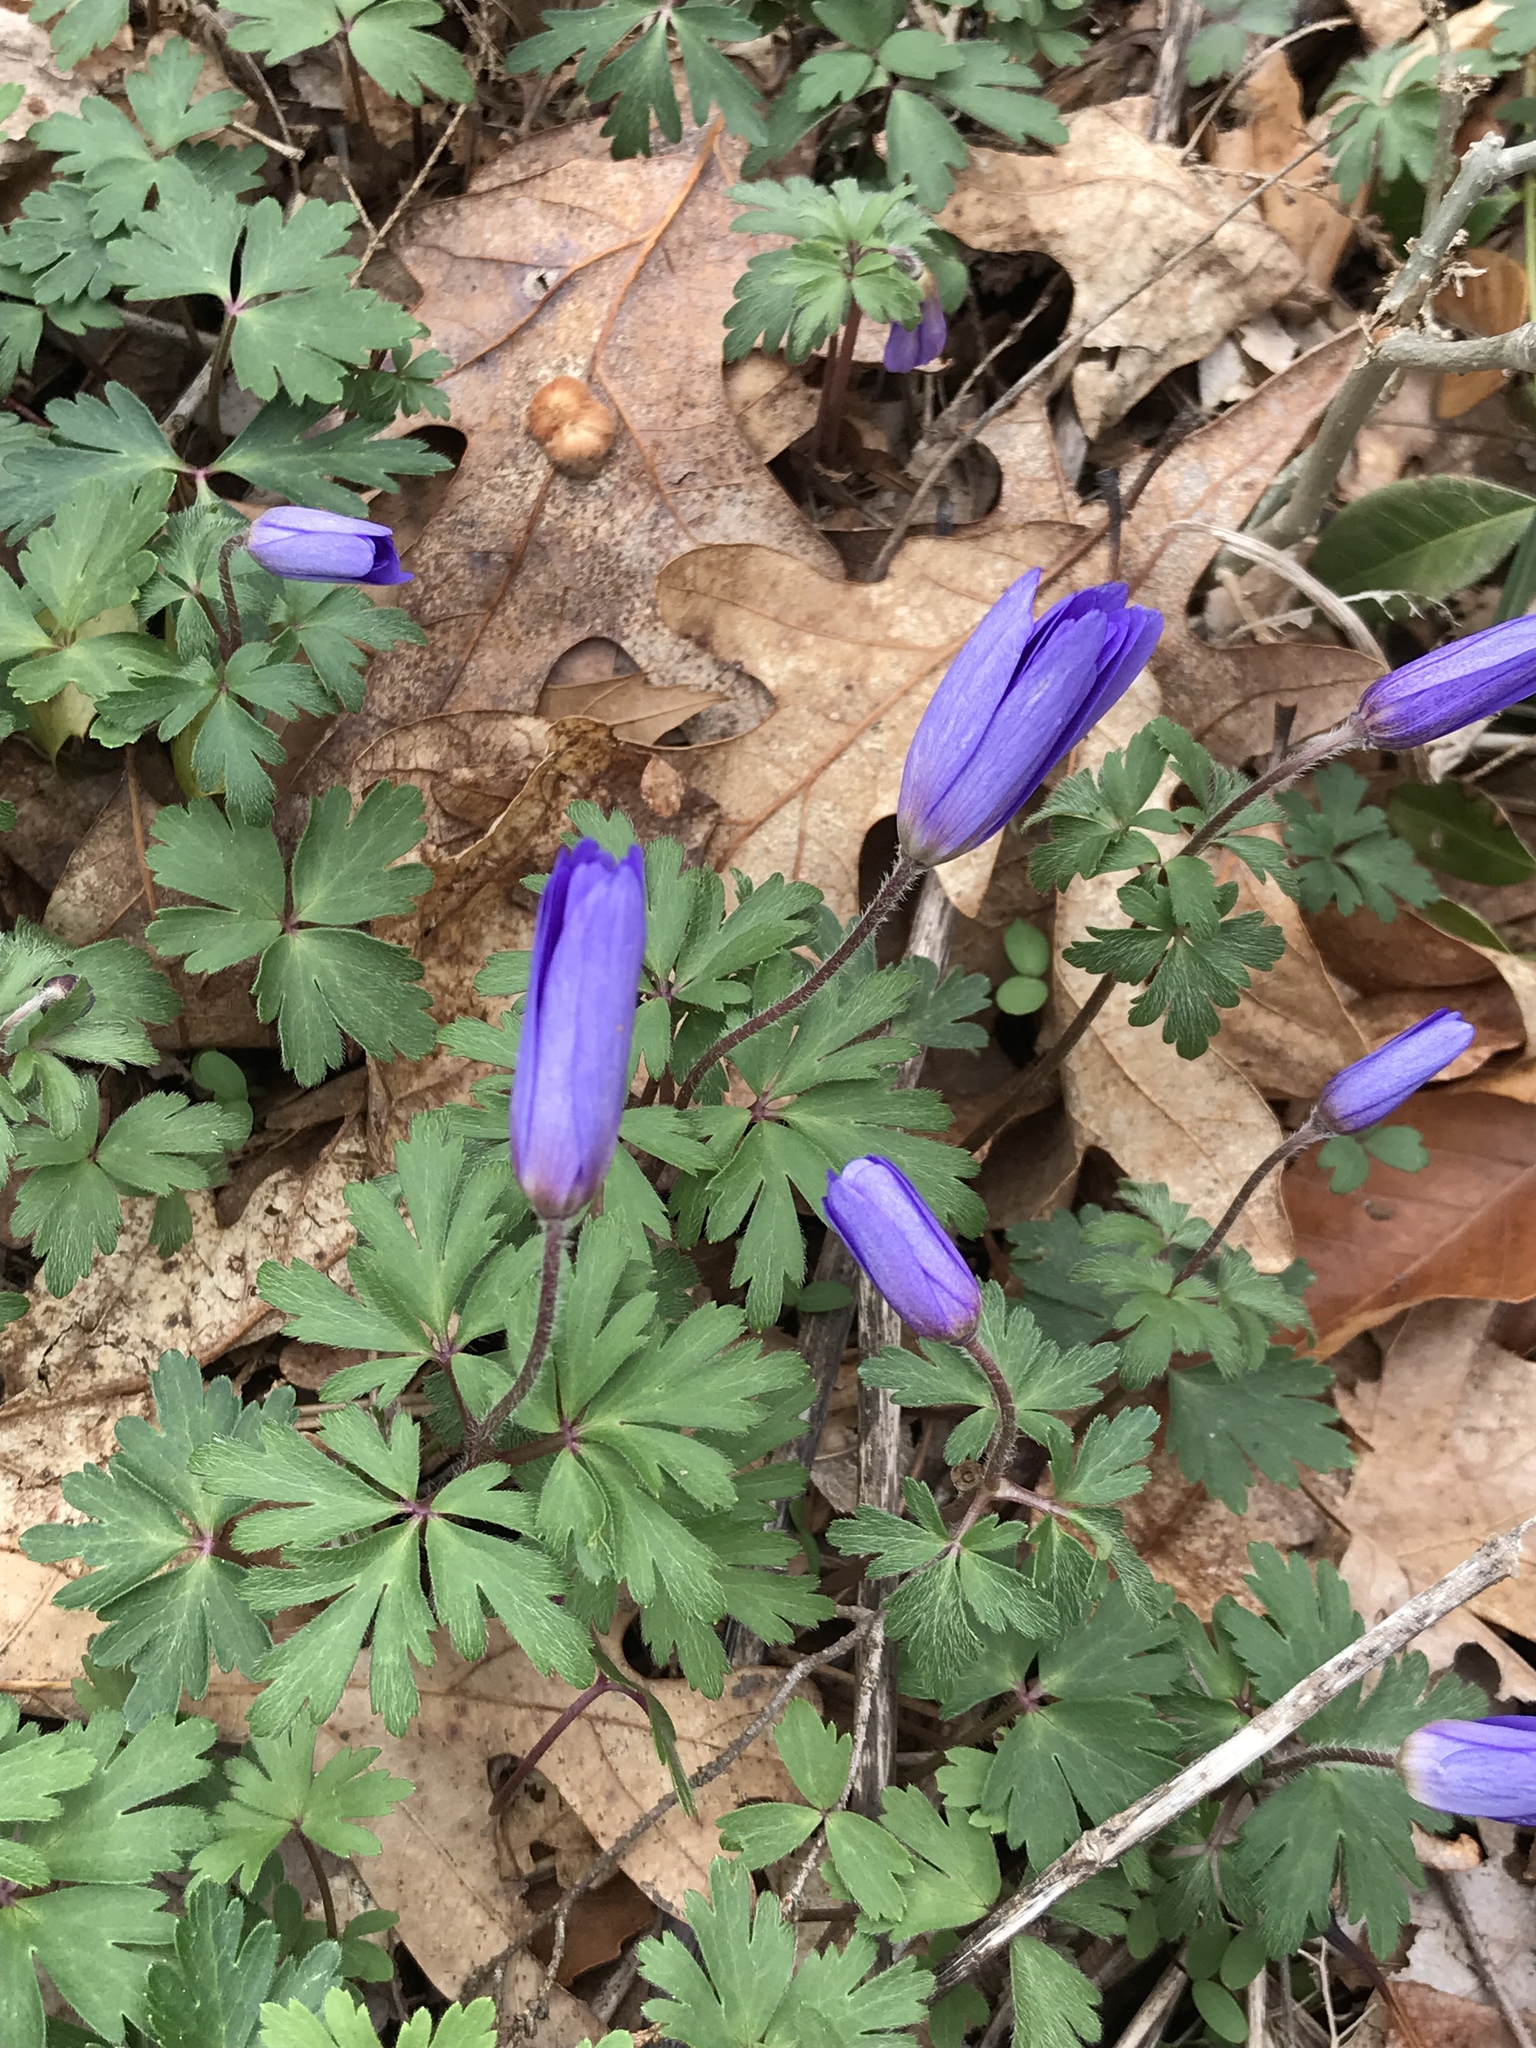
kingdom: Plantae
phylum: Tracheophyta
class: Magnoliopsida
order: Ranunculales
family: Ranunculaceae
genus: Anemone
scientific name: Anemone blanda
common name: Balkan anemone
